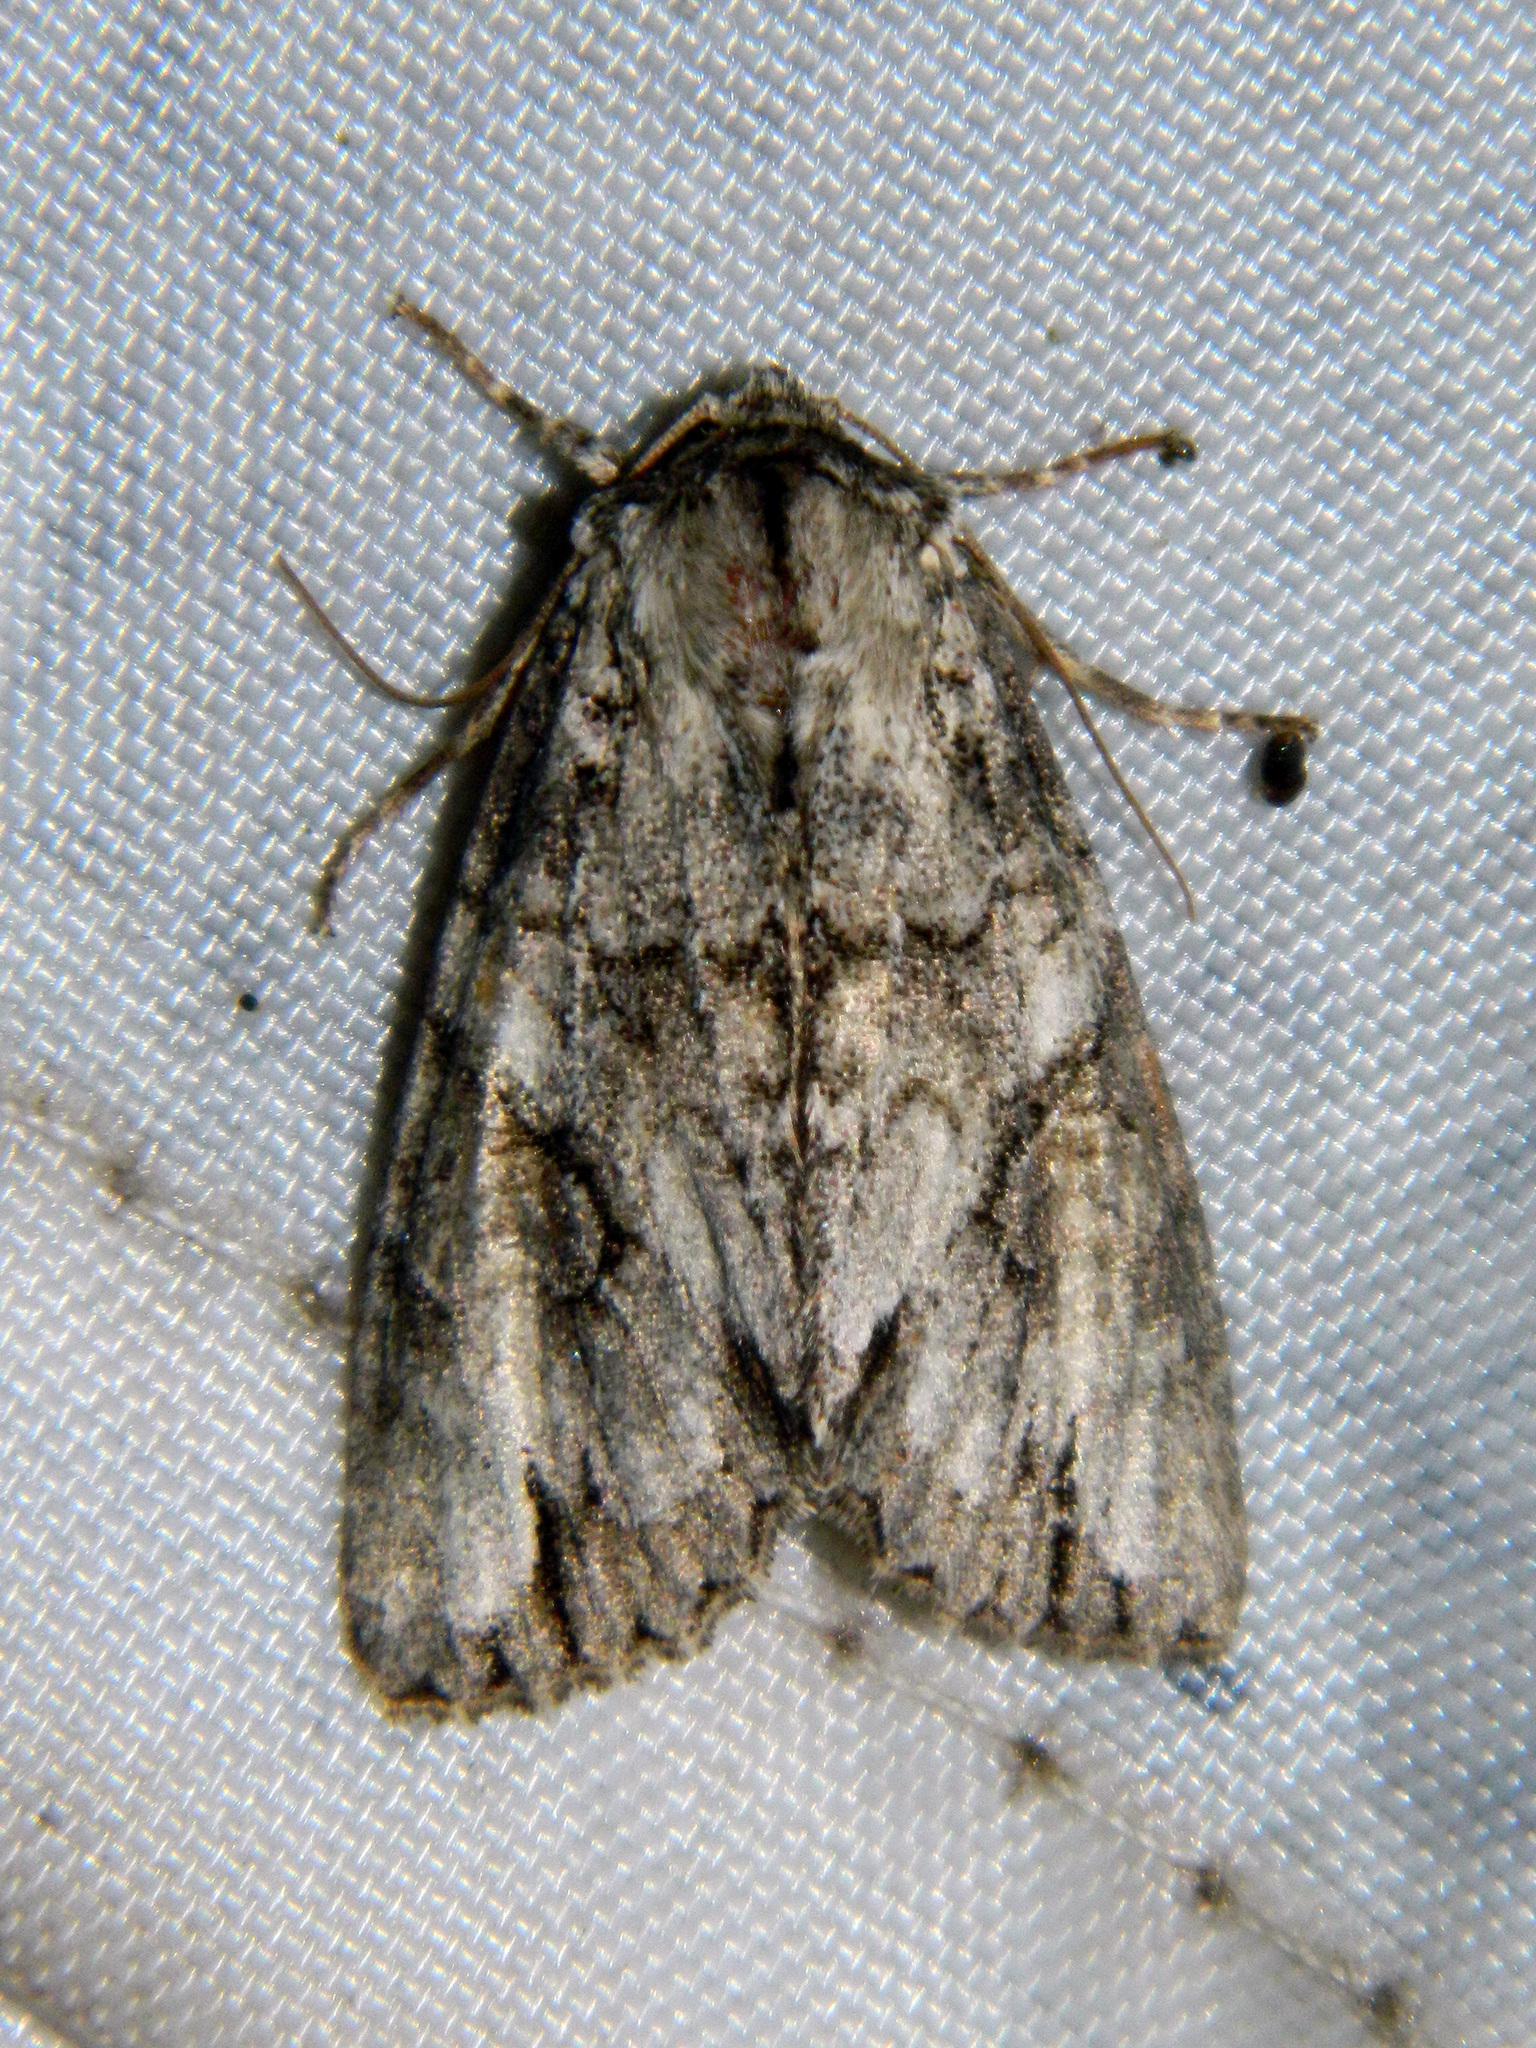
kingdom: Animalia
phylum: Arthropoda
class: Insecta
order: Lepidoptera
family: Noctuidae
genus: Achatia
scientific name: Achatia latex
